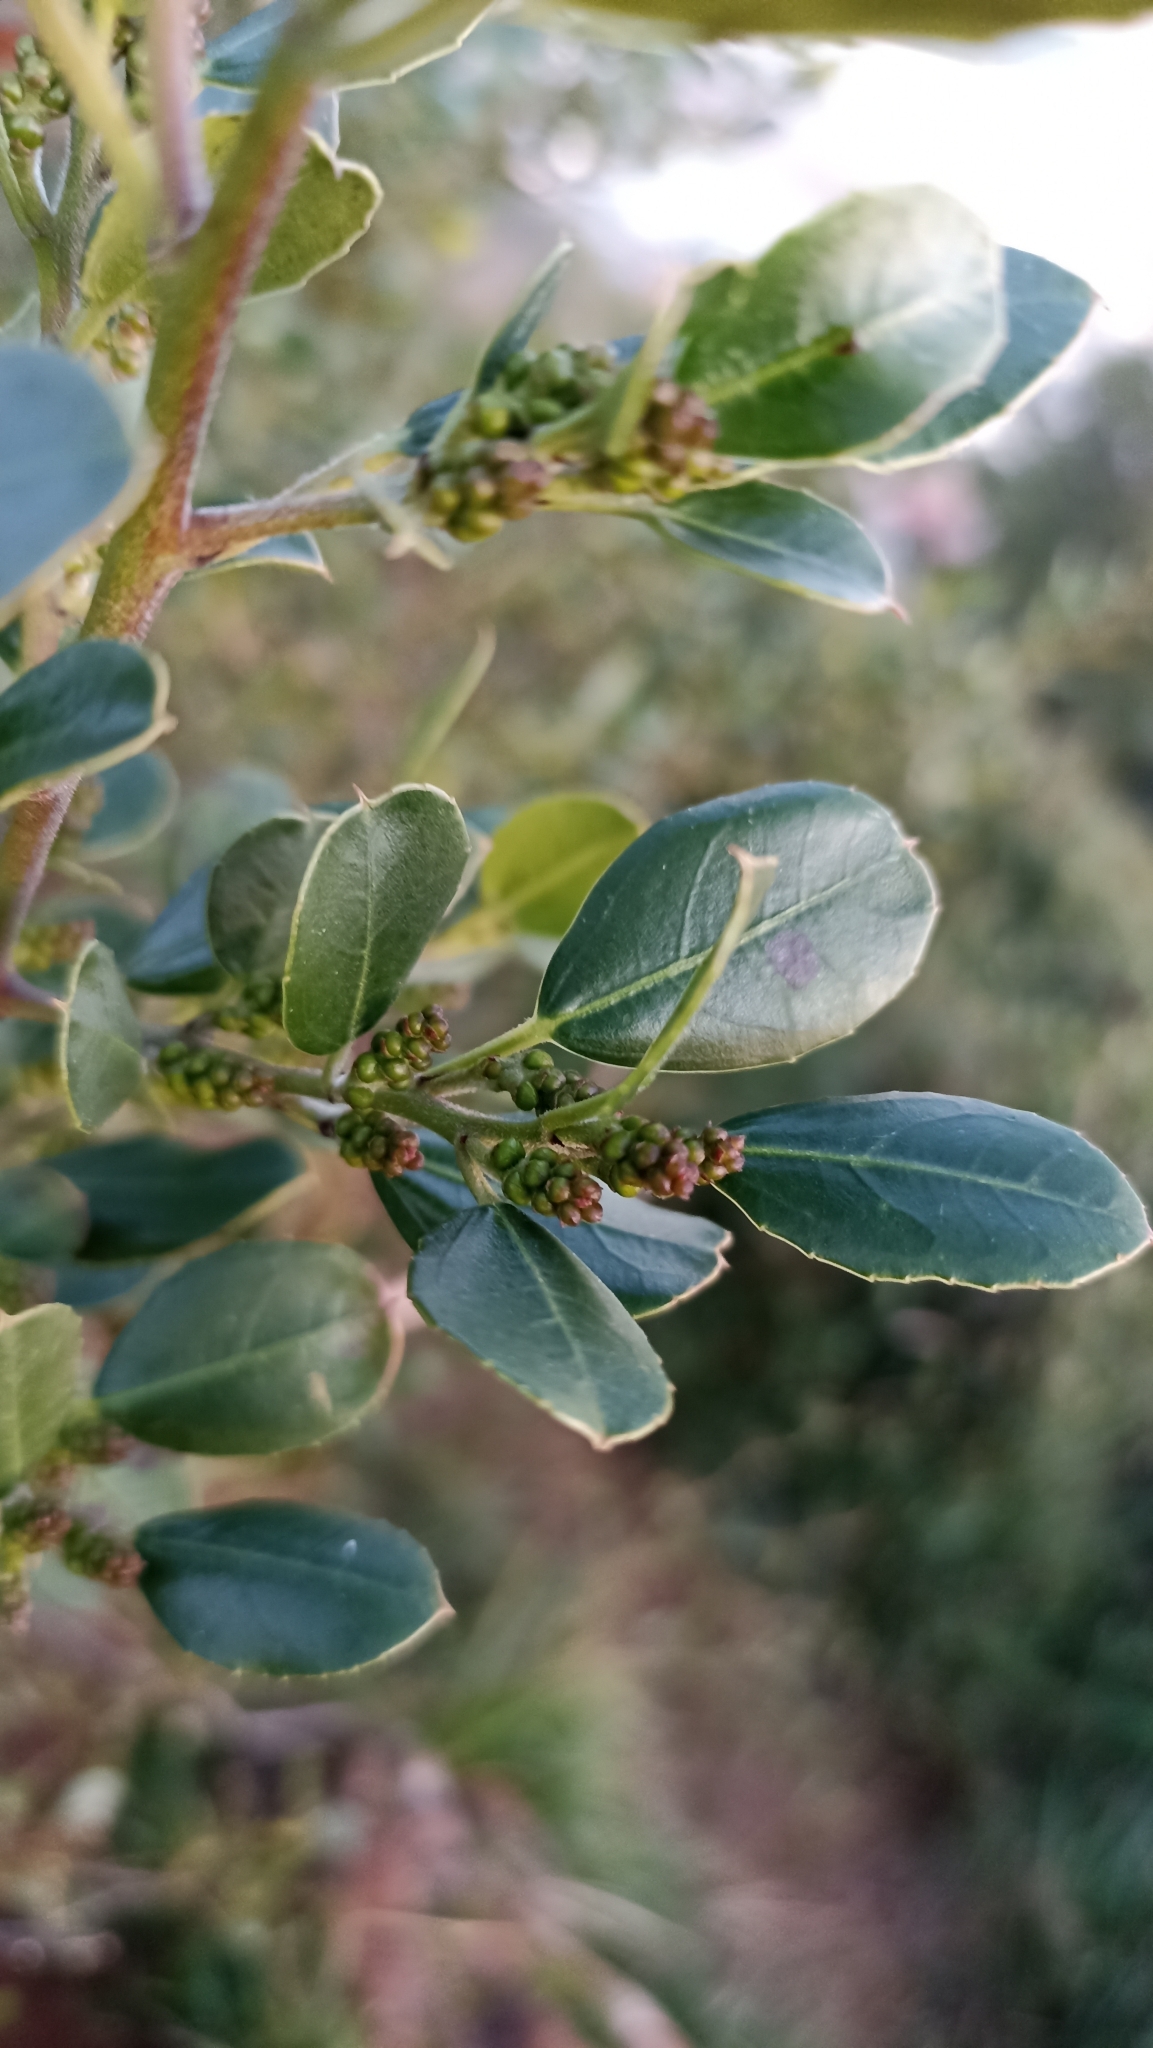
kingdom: Plantae
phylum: Tracheophyta
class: Magnoliopsida
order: Rosales
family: Rhamnaceae
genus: Rhamnus
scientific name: Rhamnus alaternus
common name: Mediterranean buckthorn
